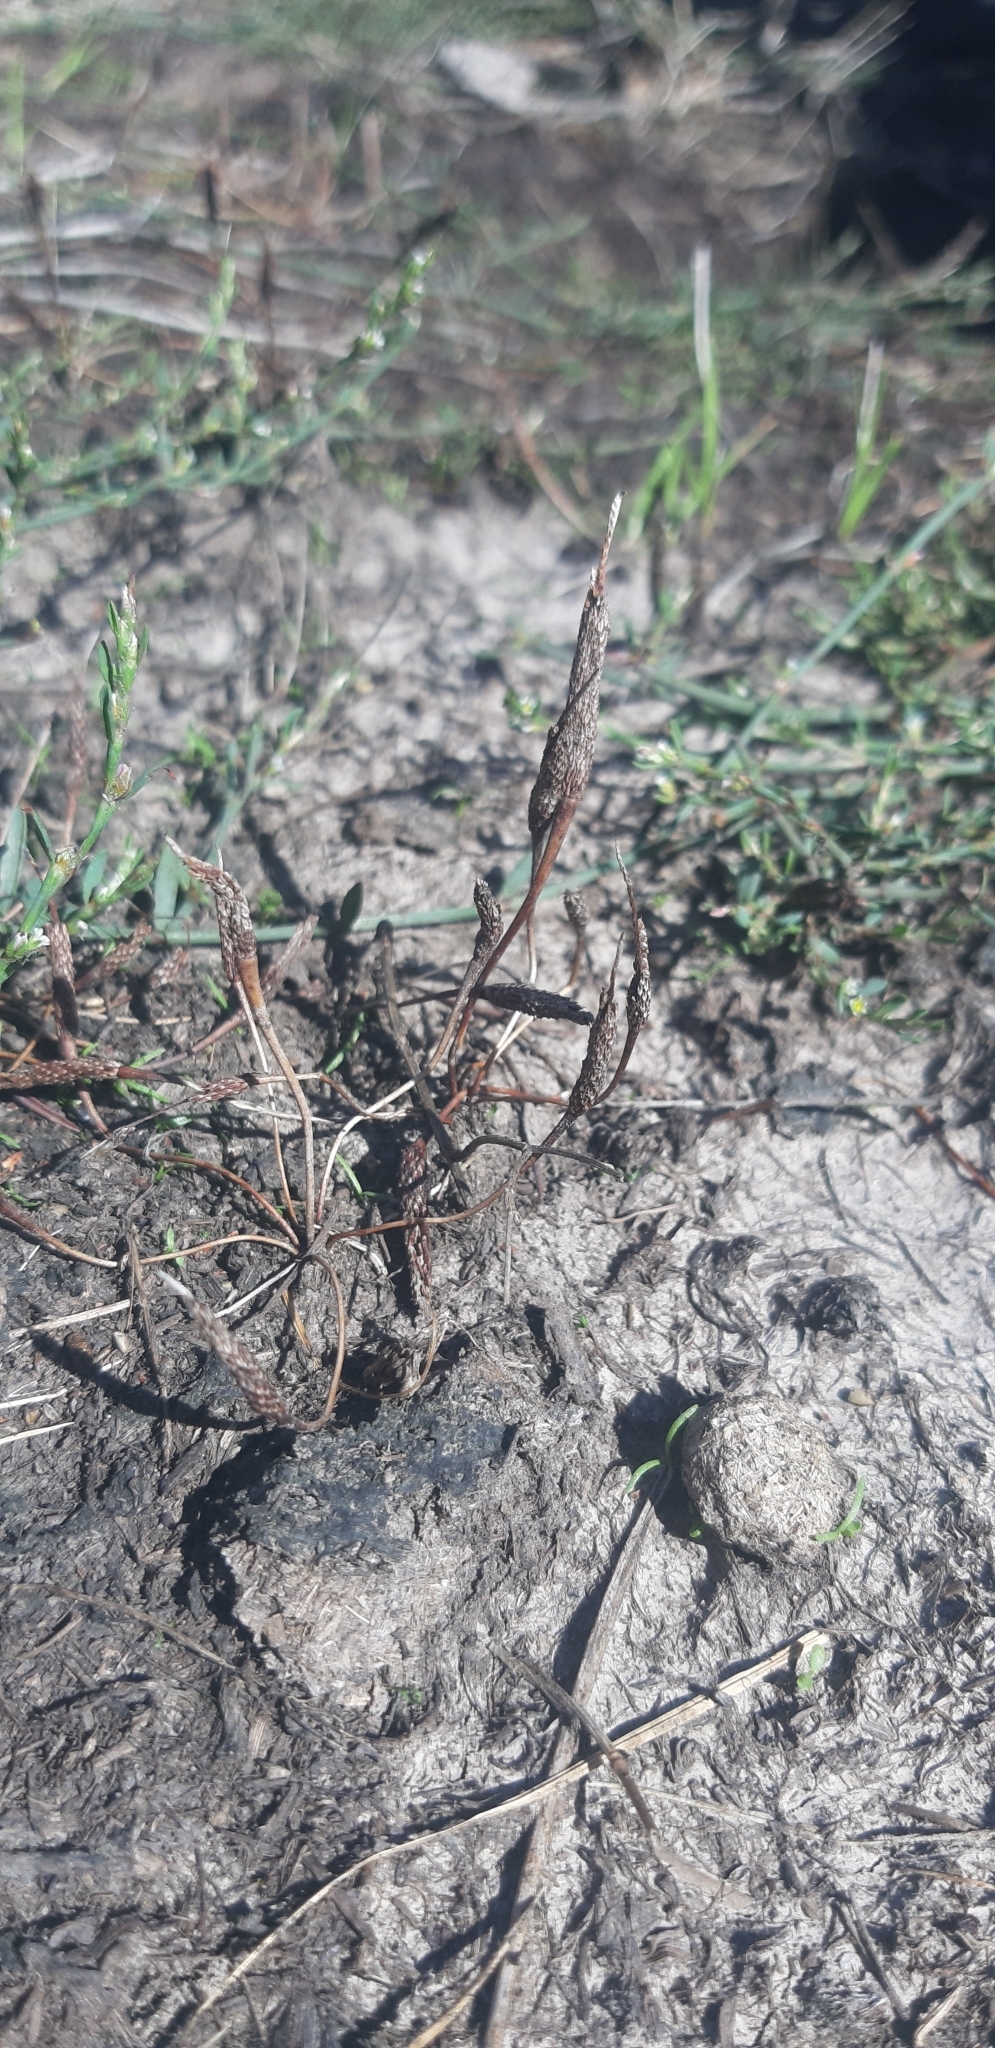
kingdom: Plantae
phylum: Tracheophyta
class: Magnoliopsida
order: Ranunculales
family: Ranunculaceae
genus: Myosurus
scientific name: Myosurus minimus
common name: Mousetail
